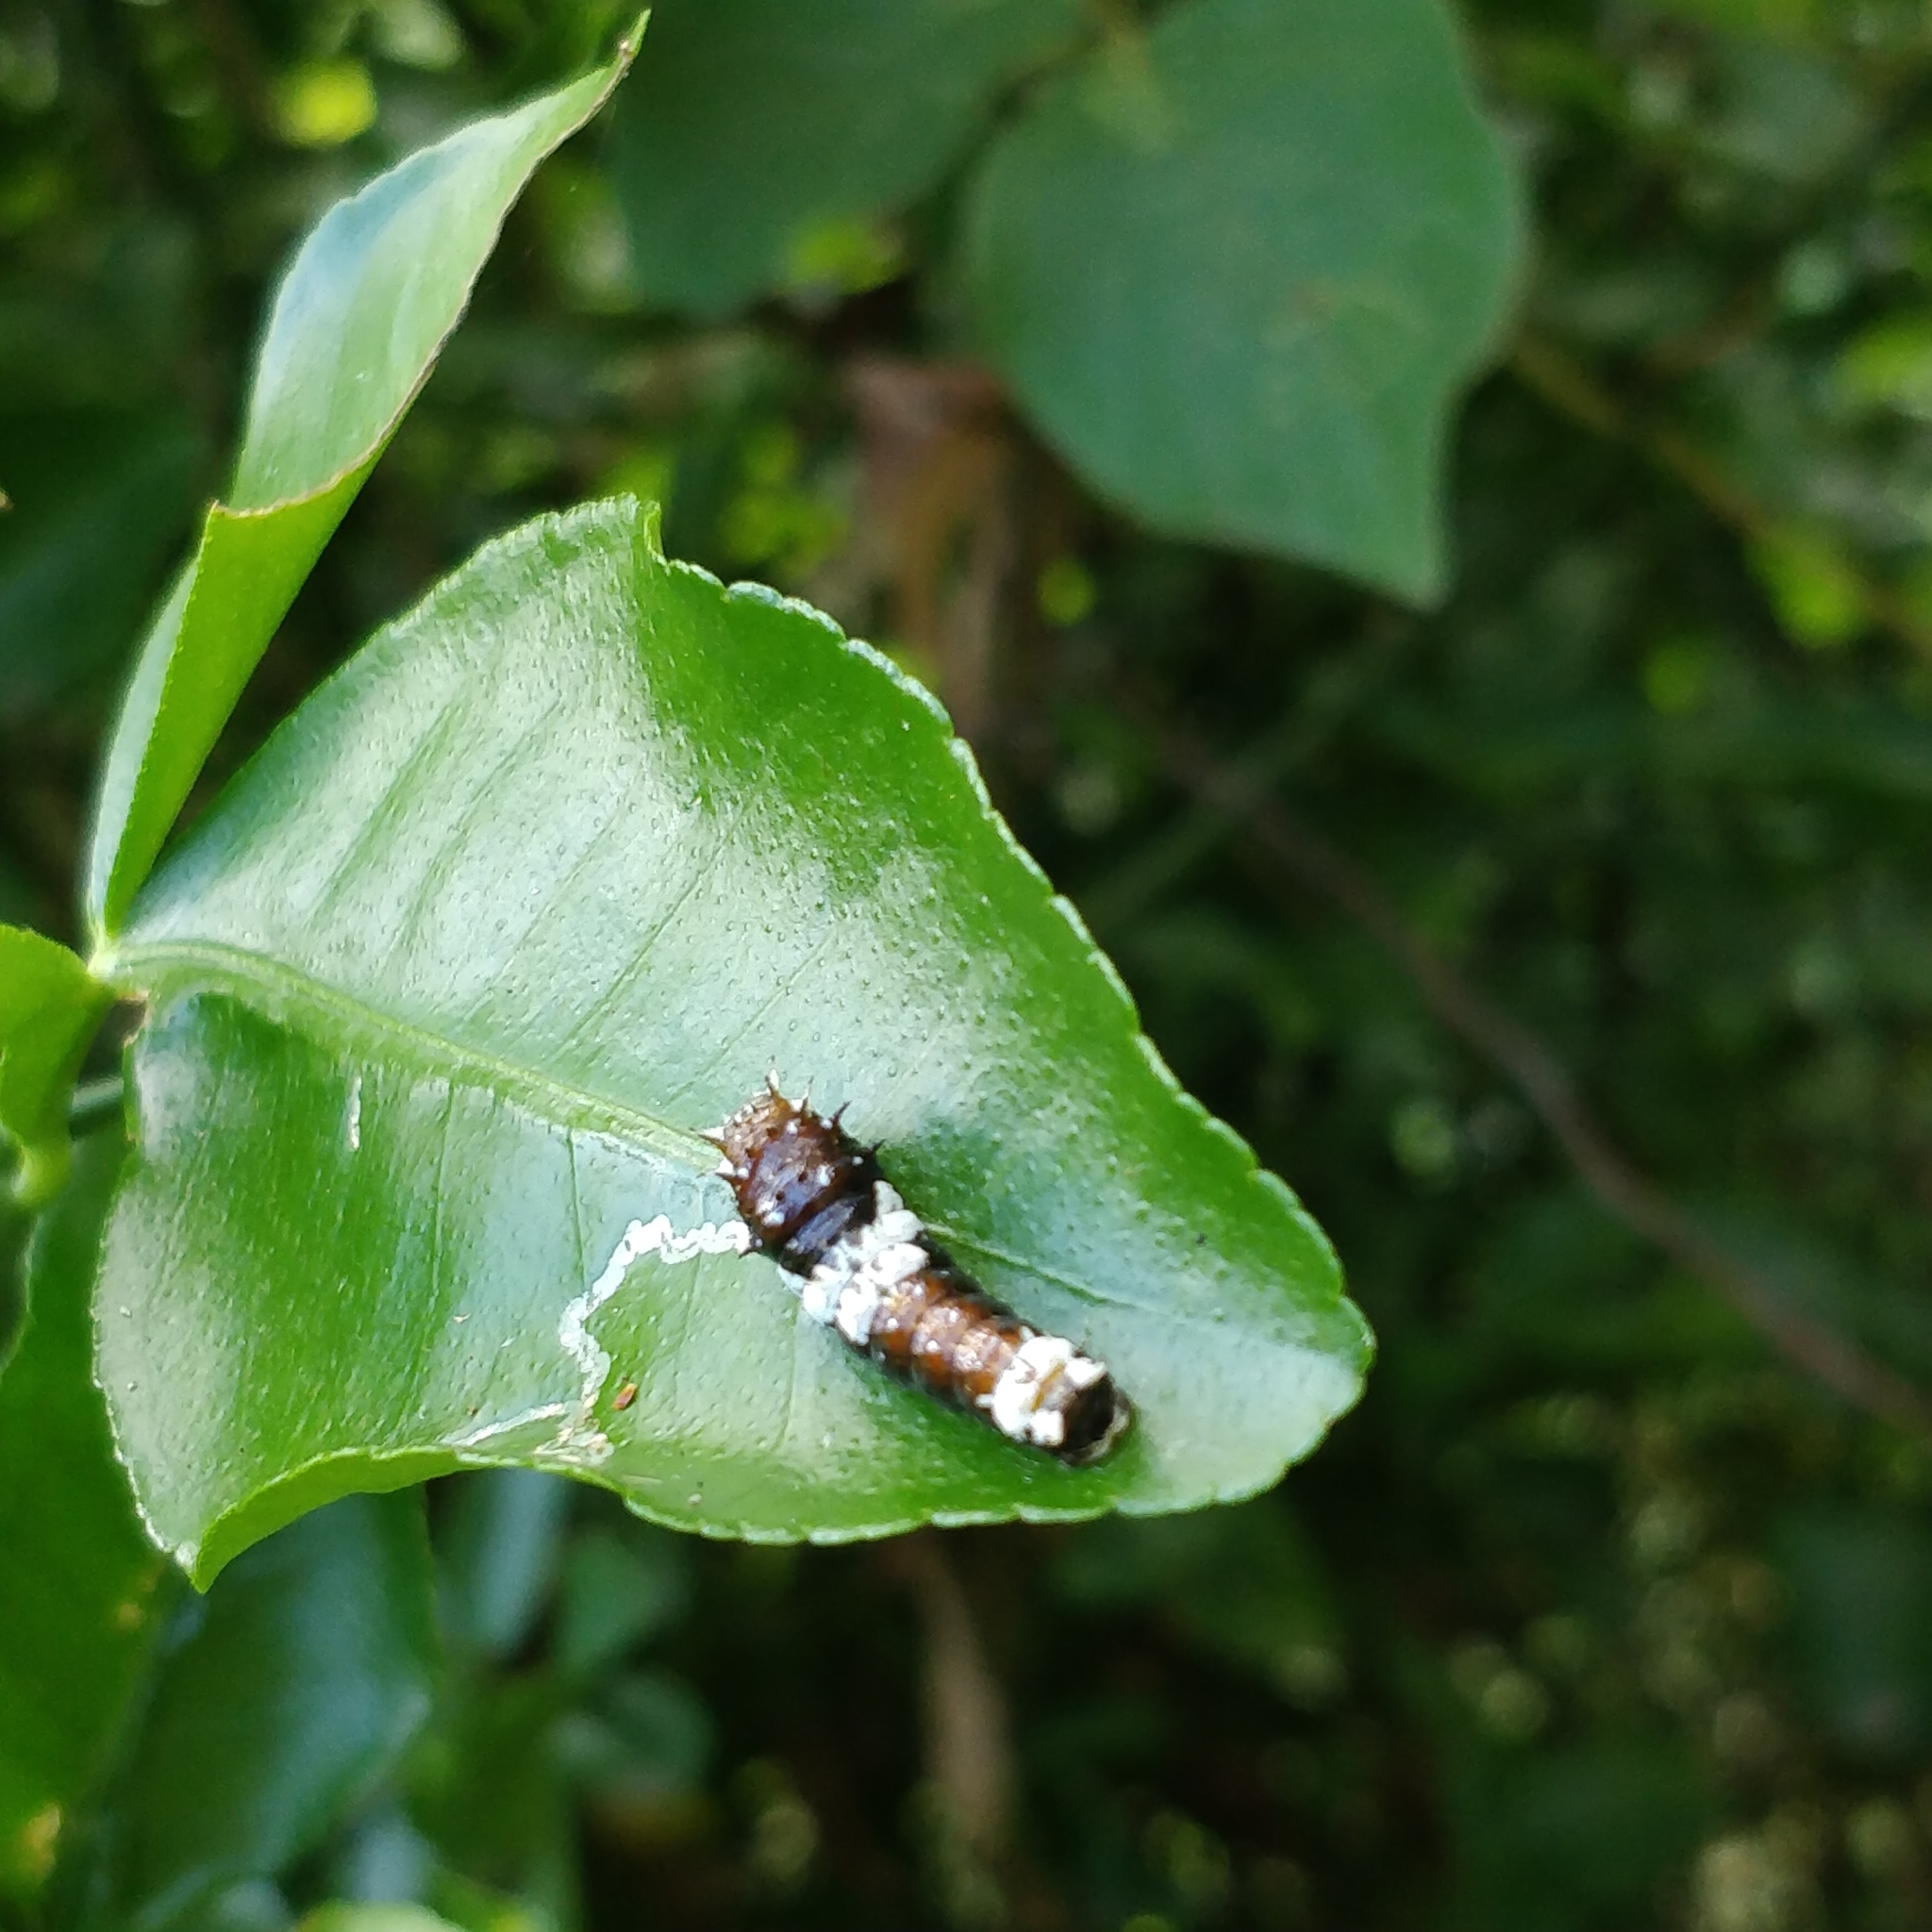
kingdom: Animalia
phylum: Arthropoda
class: Insecta
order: Lepidoptera
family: Papilionidae
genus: Papilio
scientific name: Papilio aegeus
